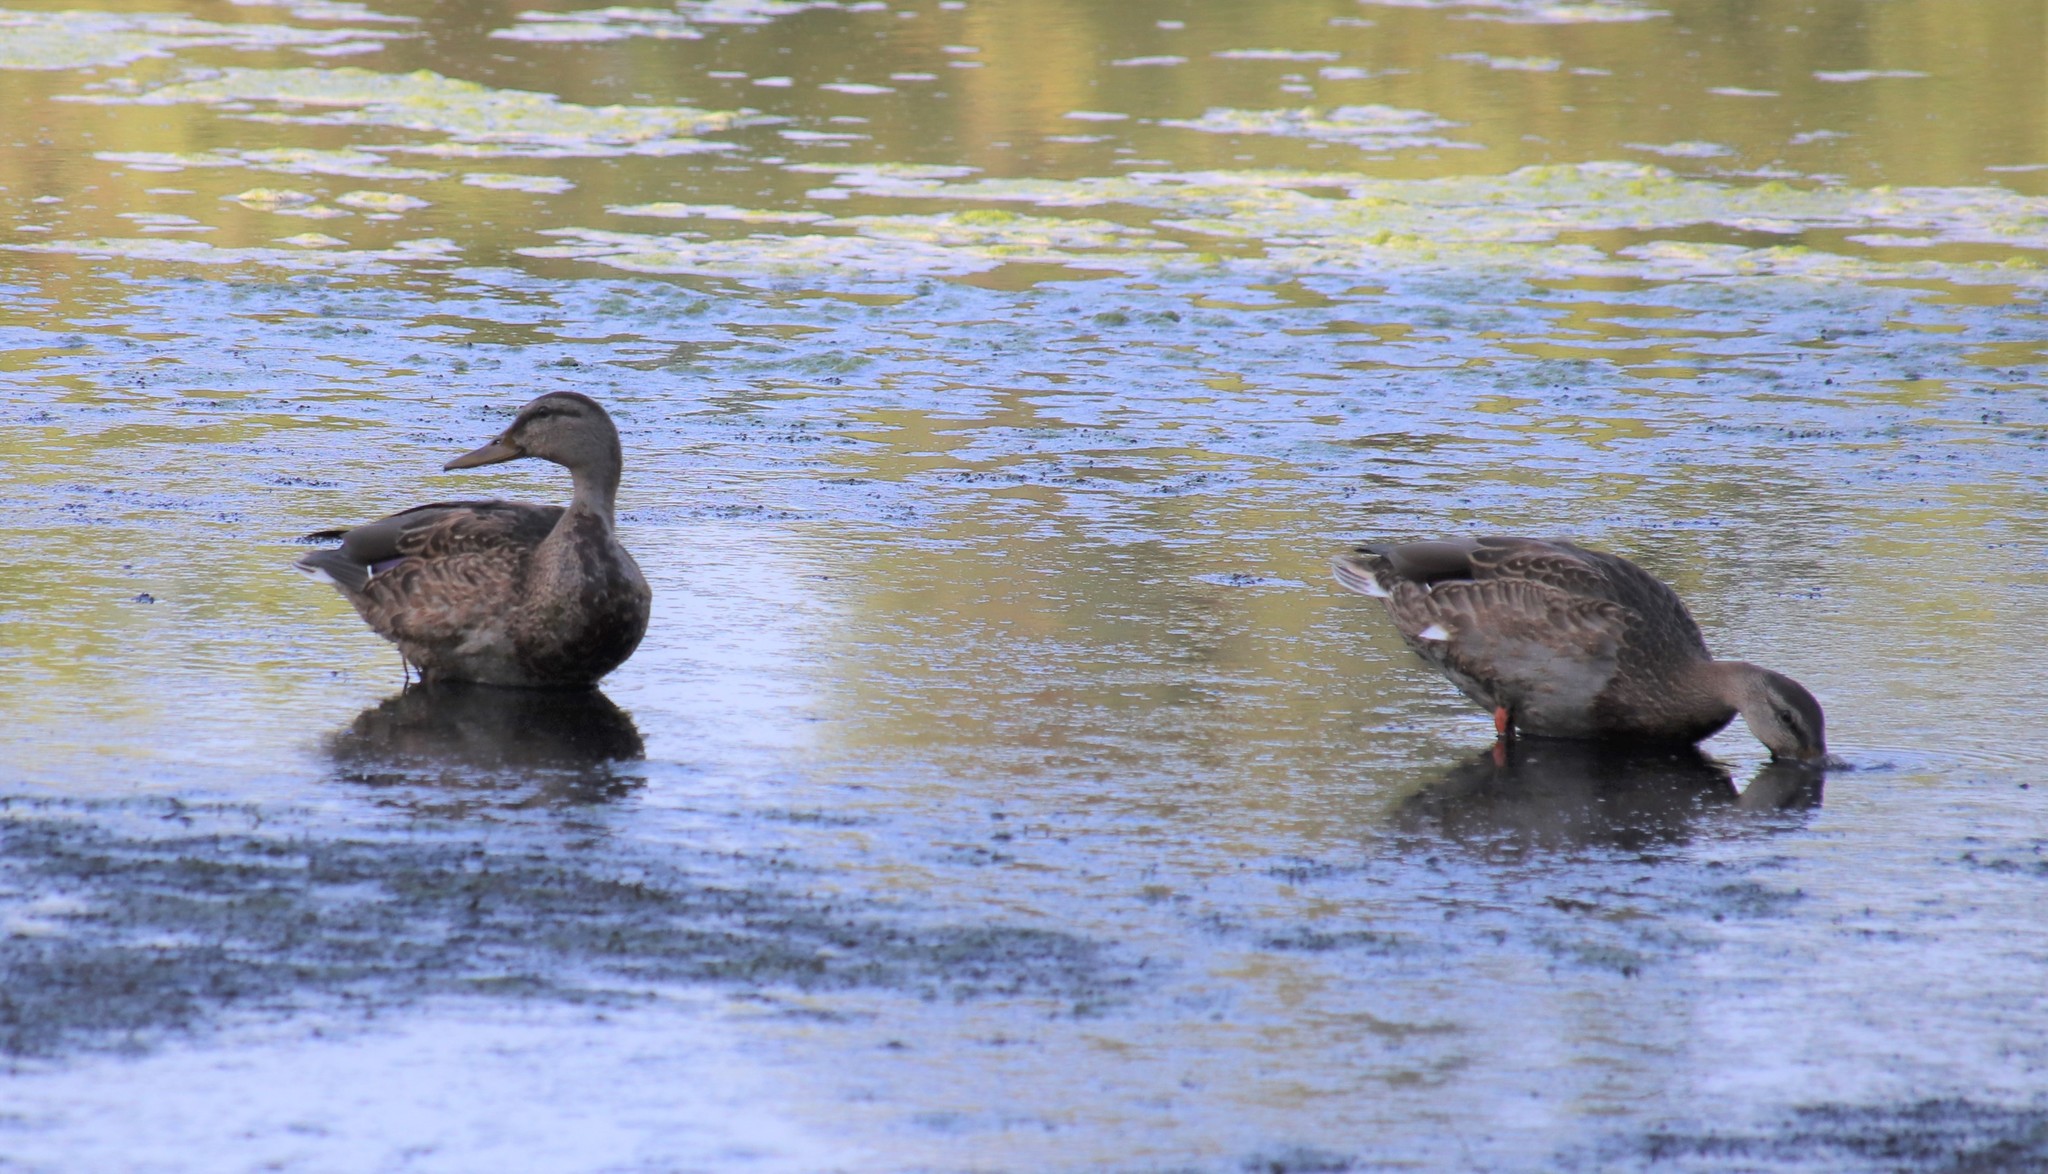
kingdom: Animalia
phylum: Chordata
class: Aves
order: Anseriformes
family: Anatidae
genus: Anas
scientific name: Anas platyrhynchos
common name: Mallard
